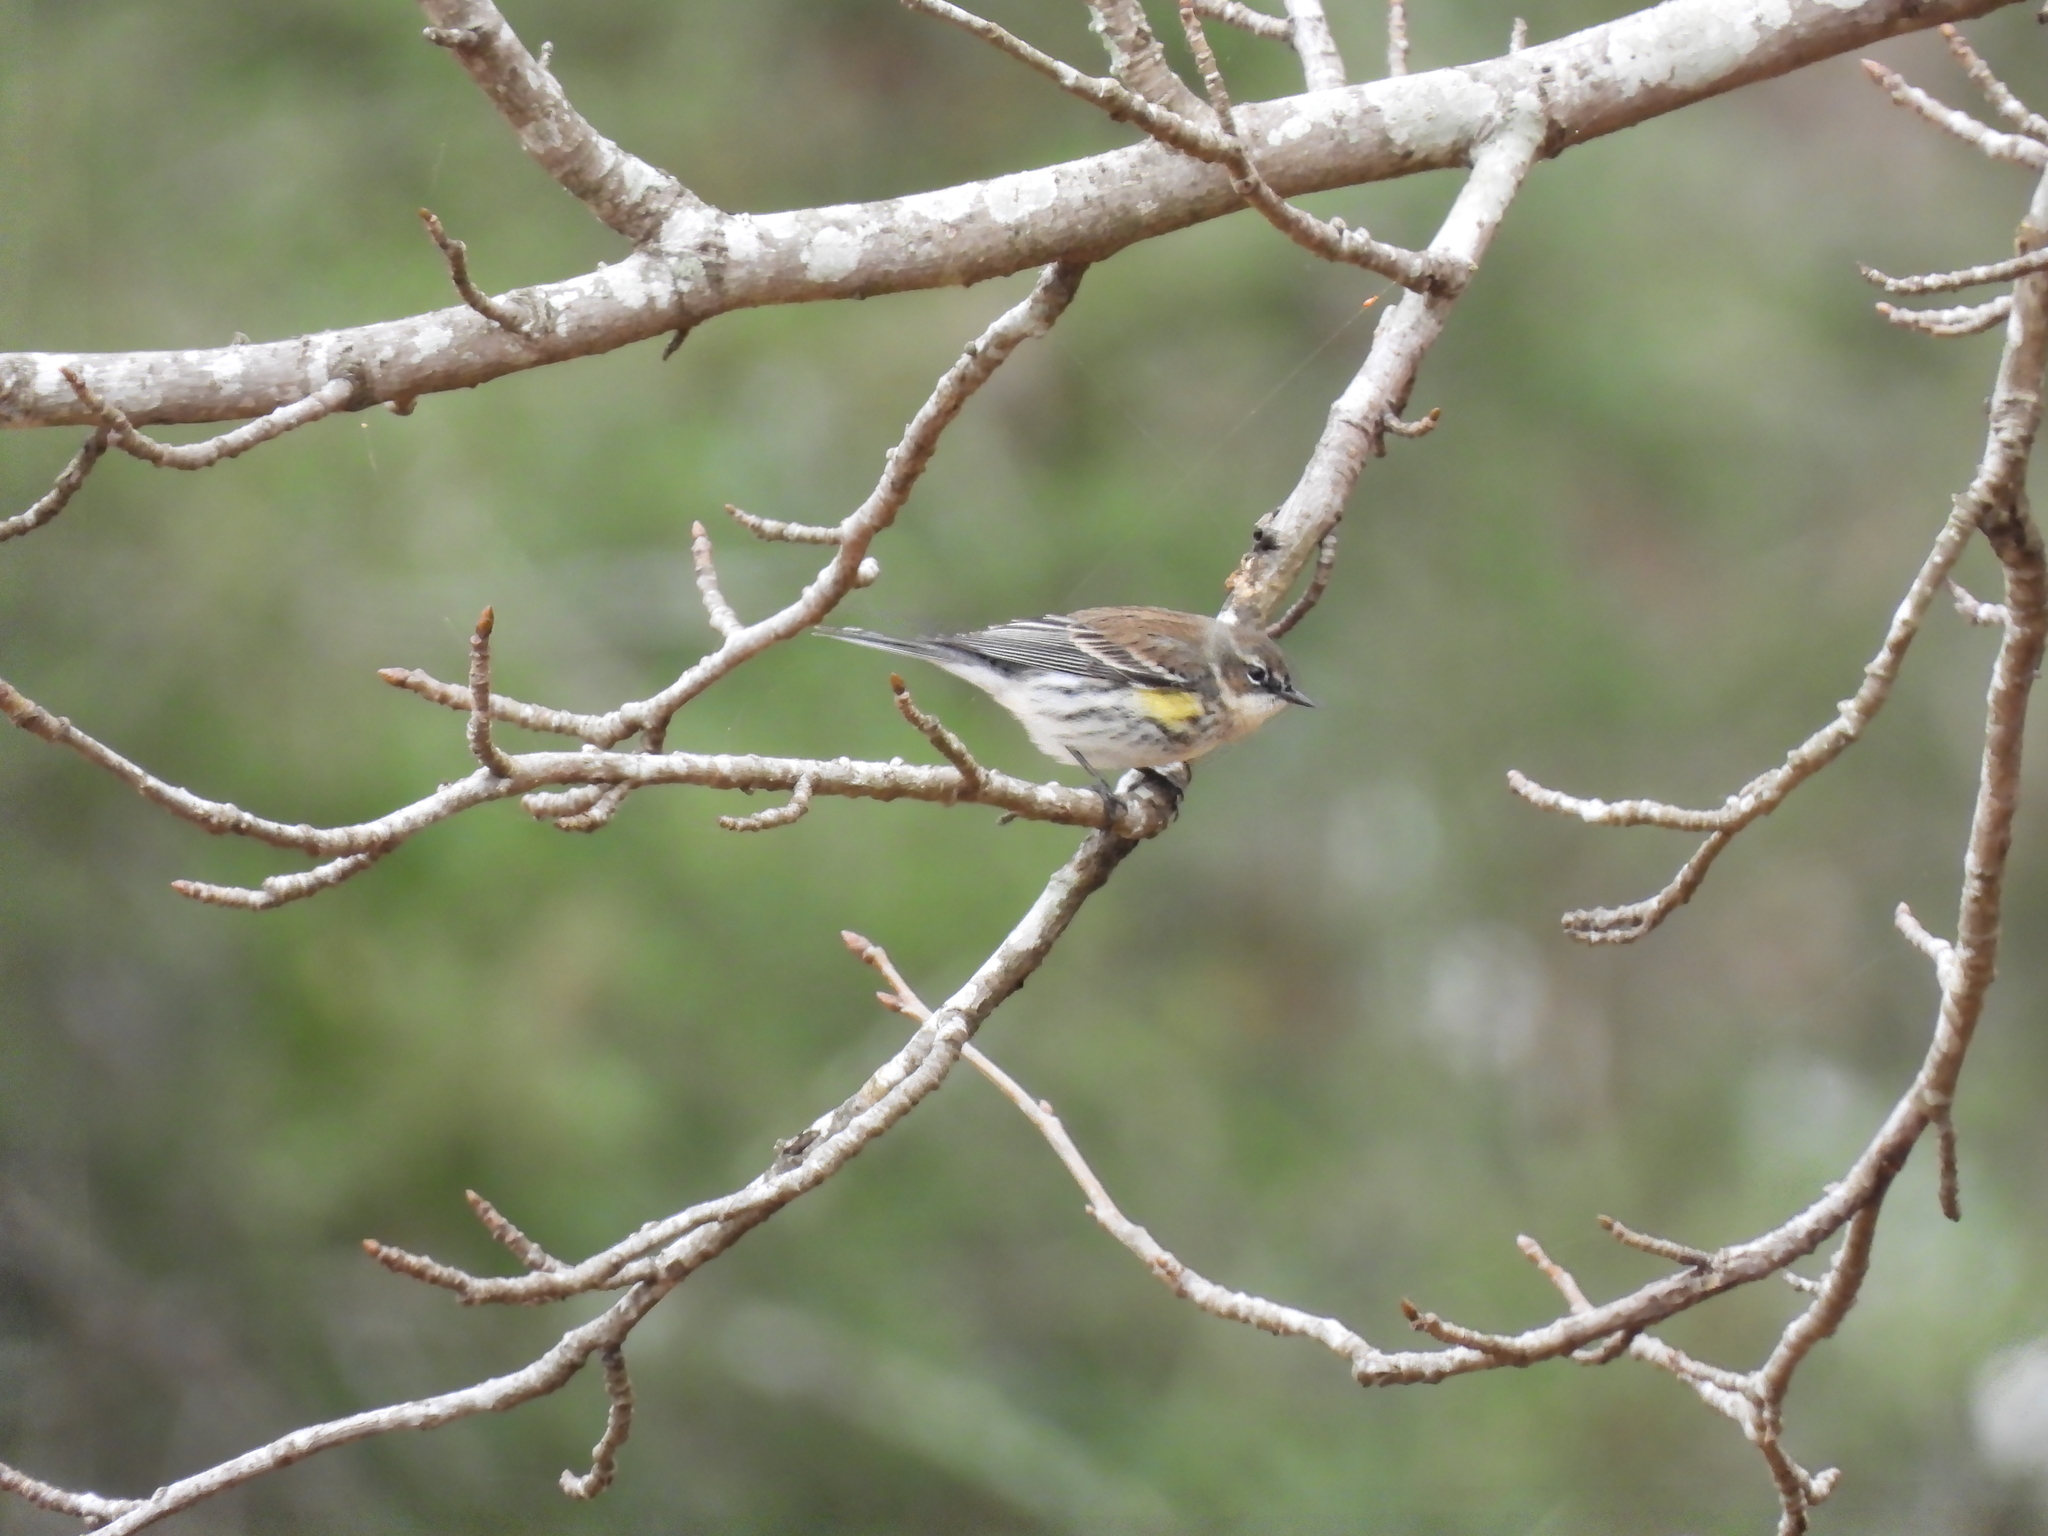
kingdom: Animalia
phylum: Chordata
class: Aves
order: Passeriformes
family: Parulidae
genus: Setophaga
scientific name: Setophaga coronata
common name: Myrtle warbler
